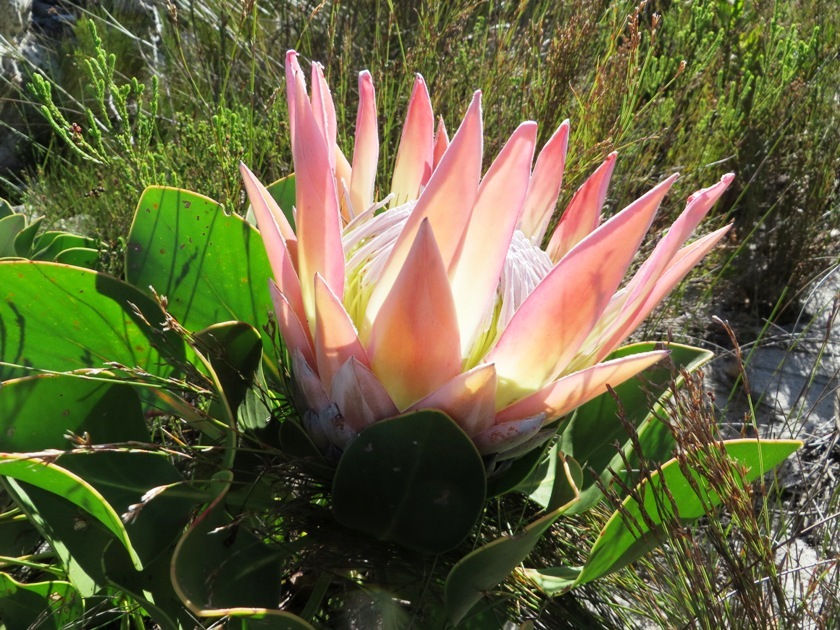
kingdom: Plantae
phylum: Tracheophyta
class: Magnoliopsida
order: Proteales
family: Proteaceae
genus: Protea
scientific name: Protea cynaroides
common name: King protea
